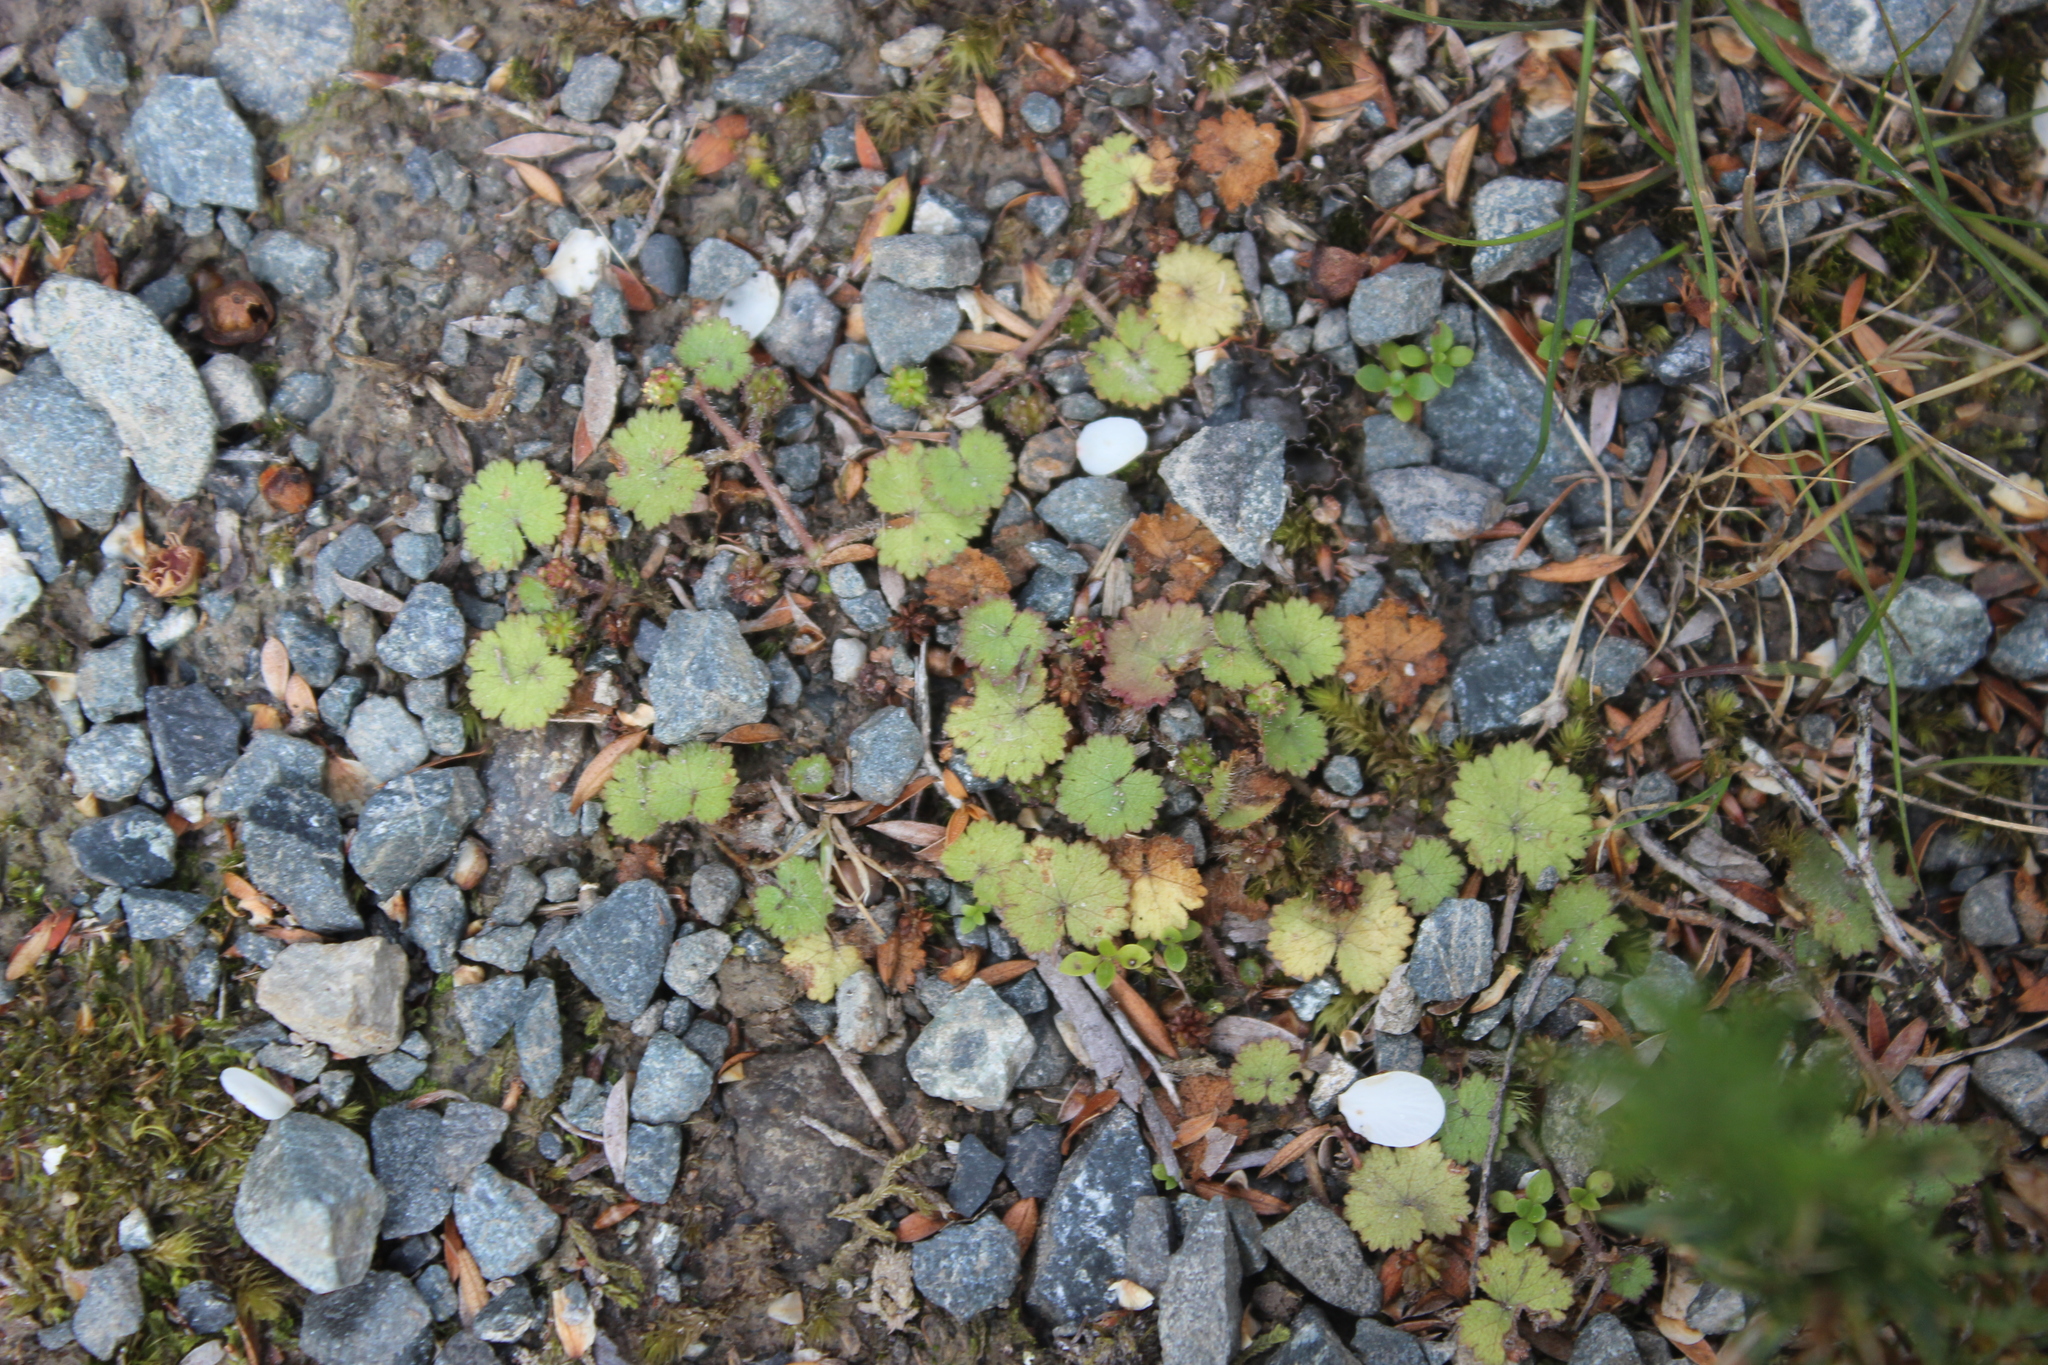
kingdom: Plantae
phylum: Tracheophyta
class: Magnoliopsida
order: Apiales
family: Araliaceae
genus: Hydrocotyle
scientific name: Hydrocotyle moschata
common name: Hairy pennywort
